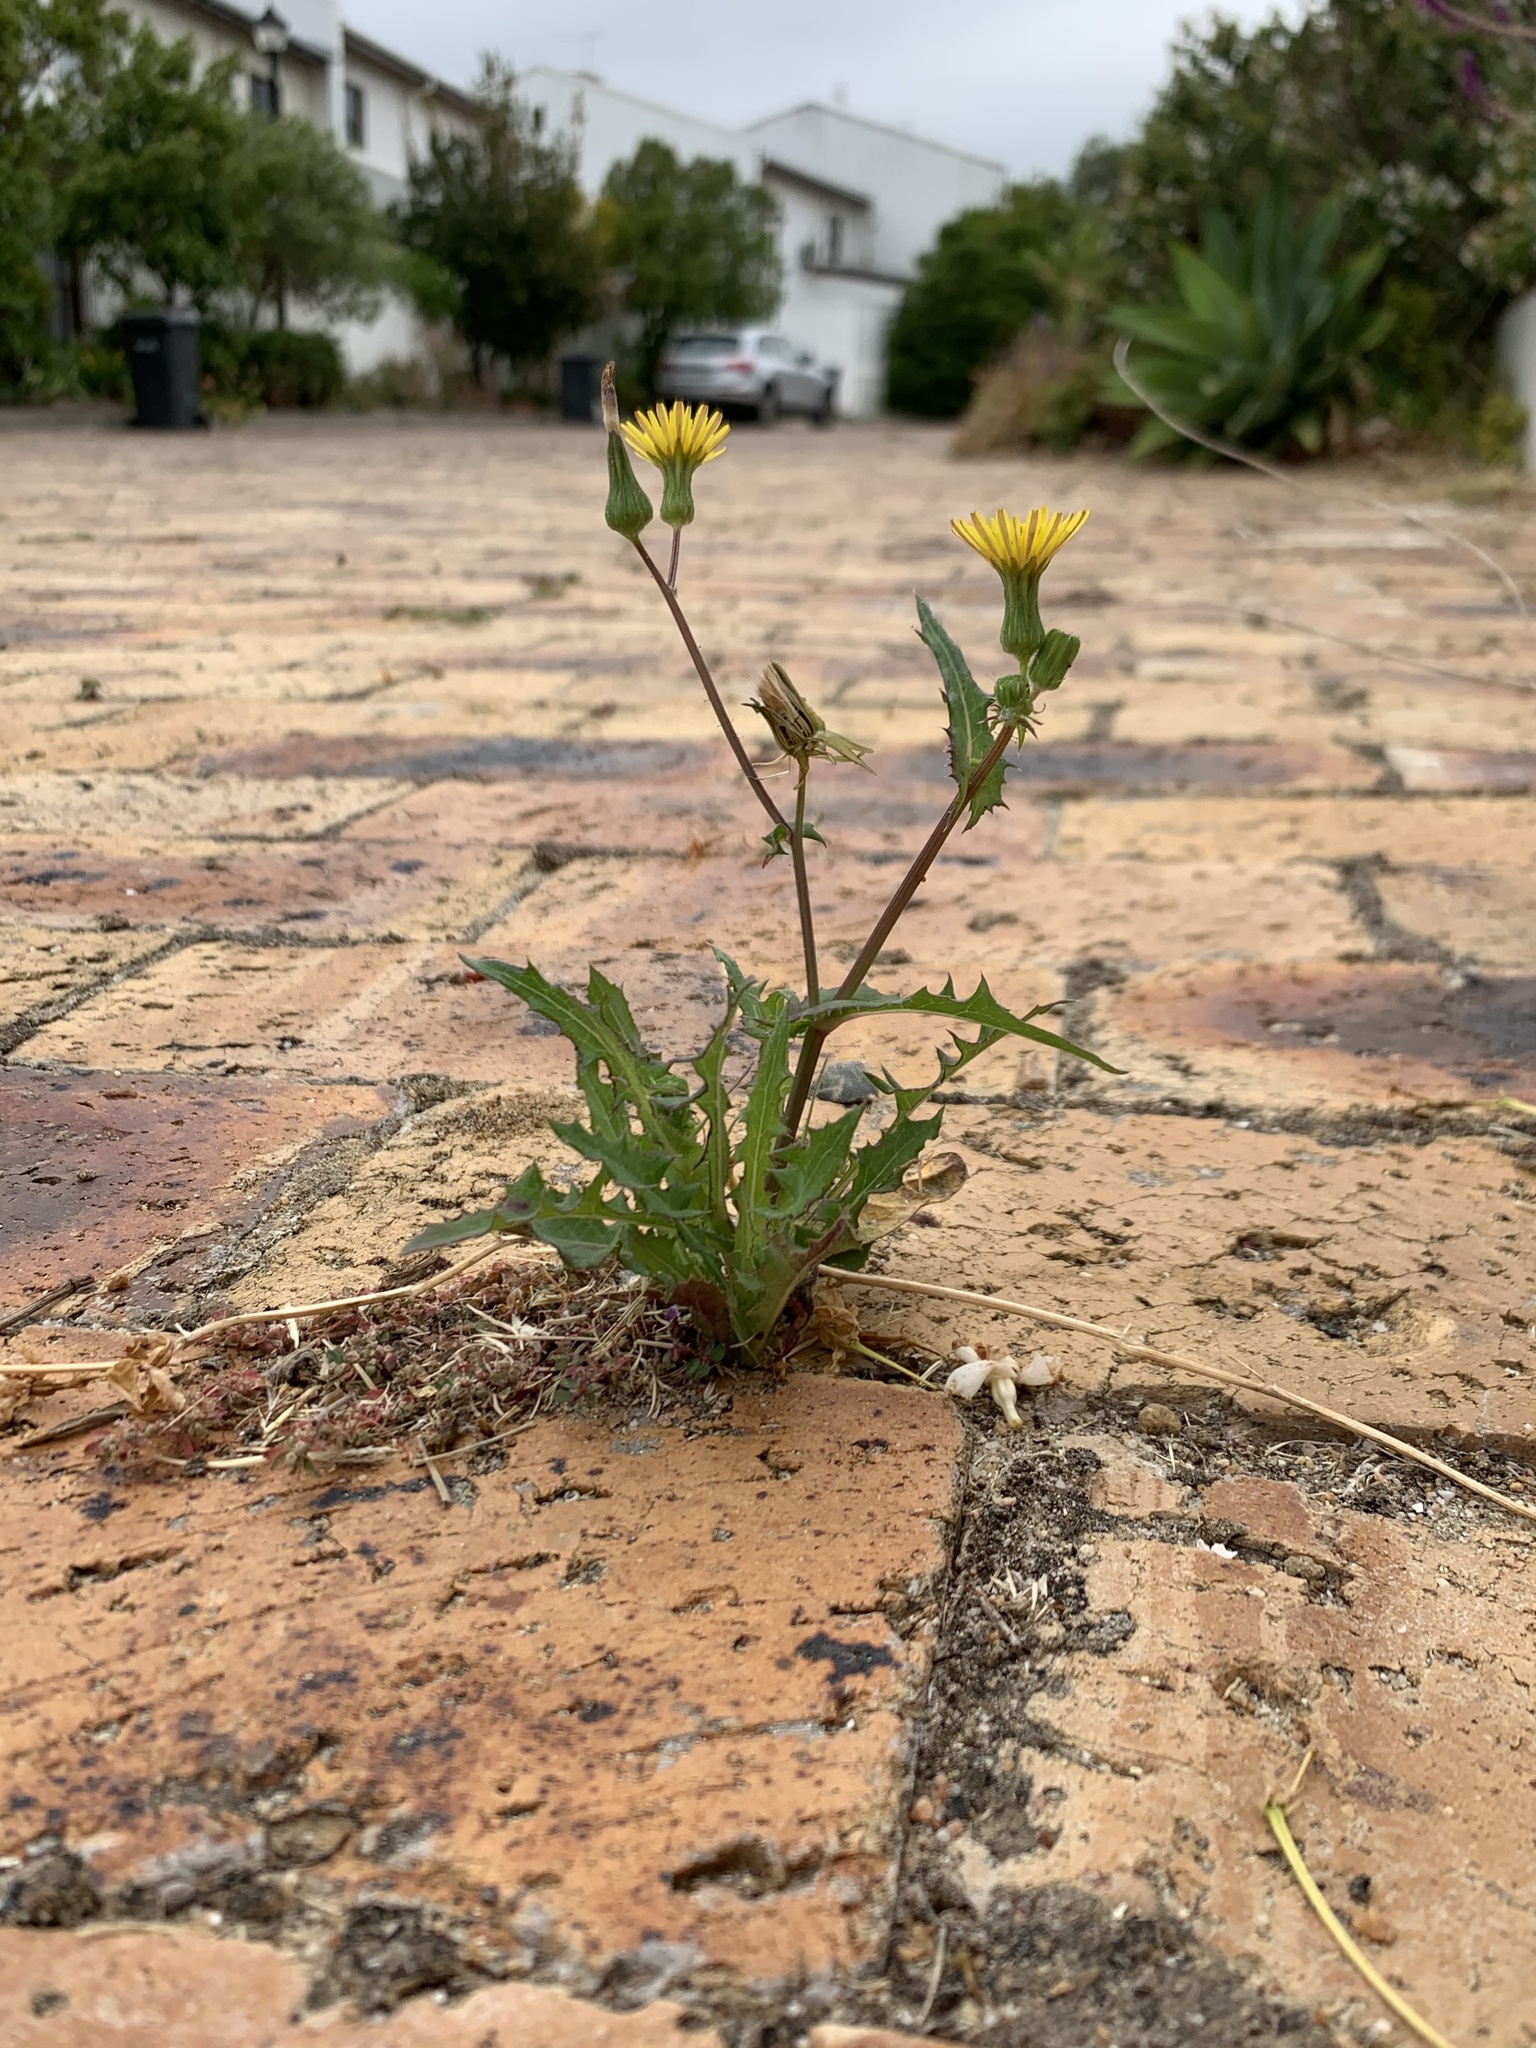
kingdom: Plantae
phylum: Tracheophyta
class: Magnoliopsida
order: Asterales
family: Asteraceae
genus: Sonchus
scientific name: Sonchus oleraceus
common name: Common sowthistle
